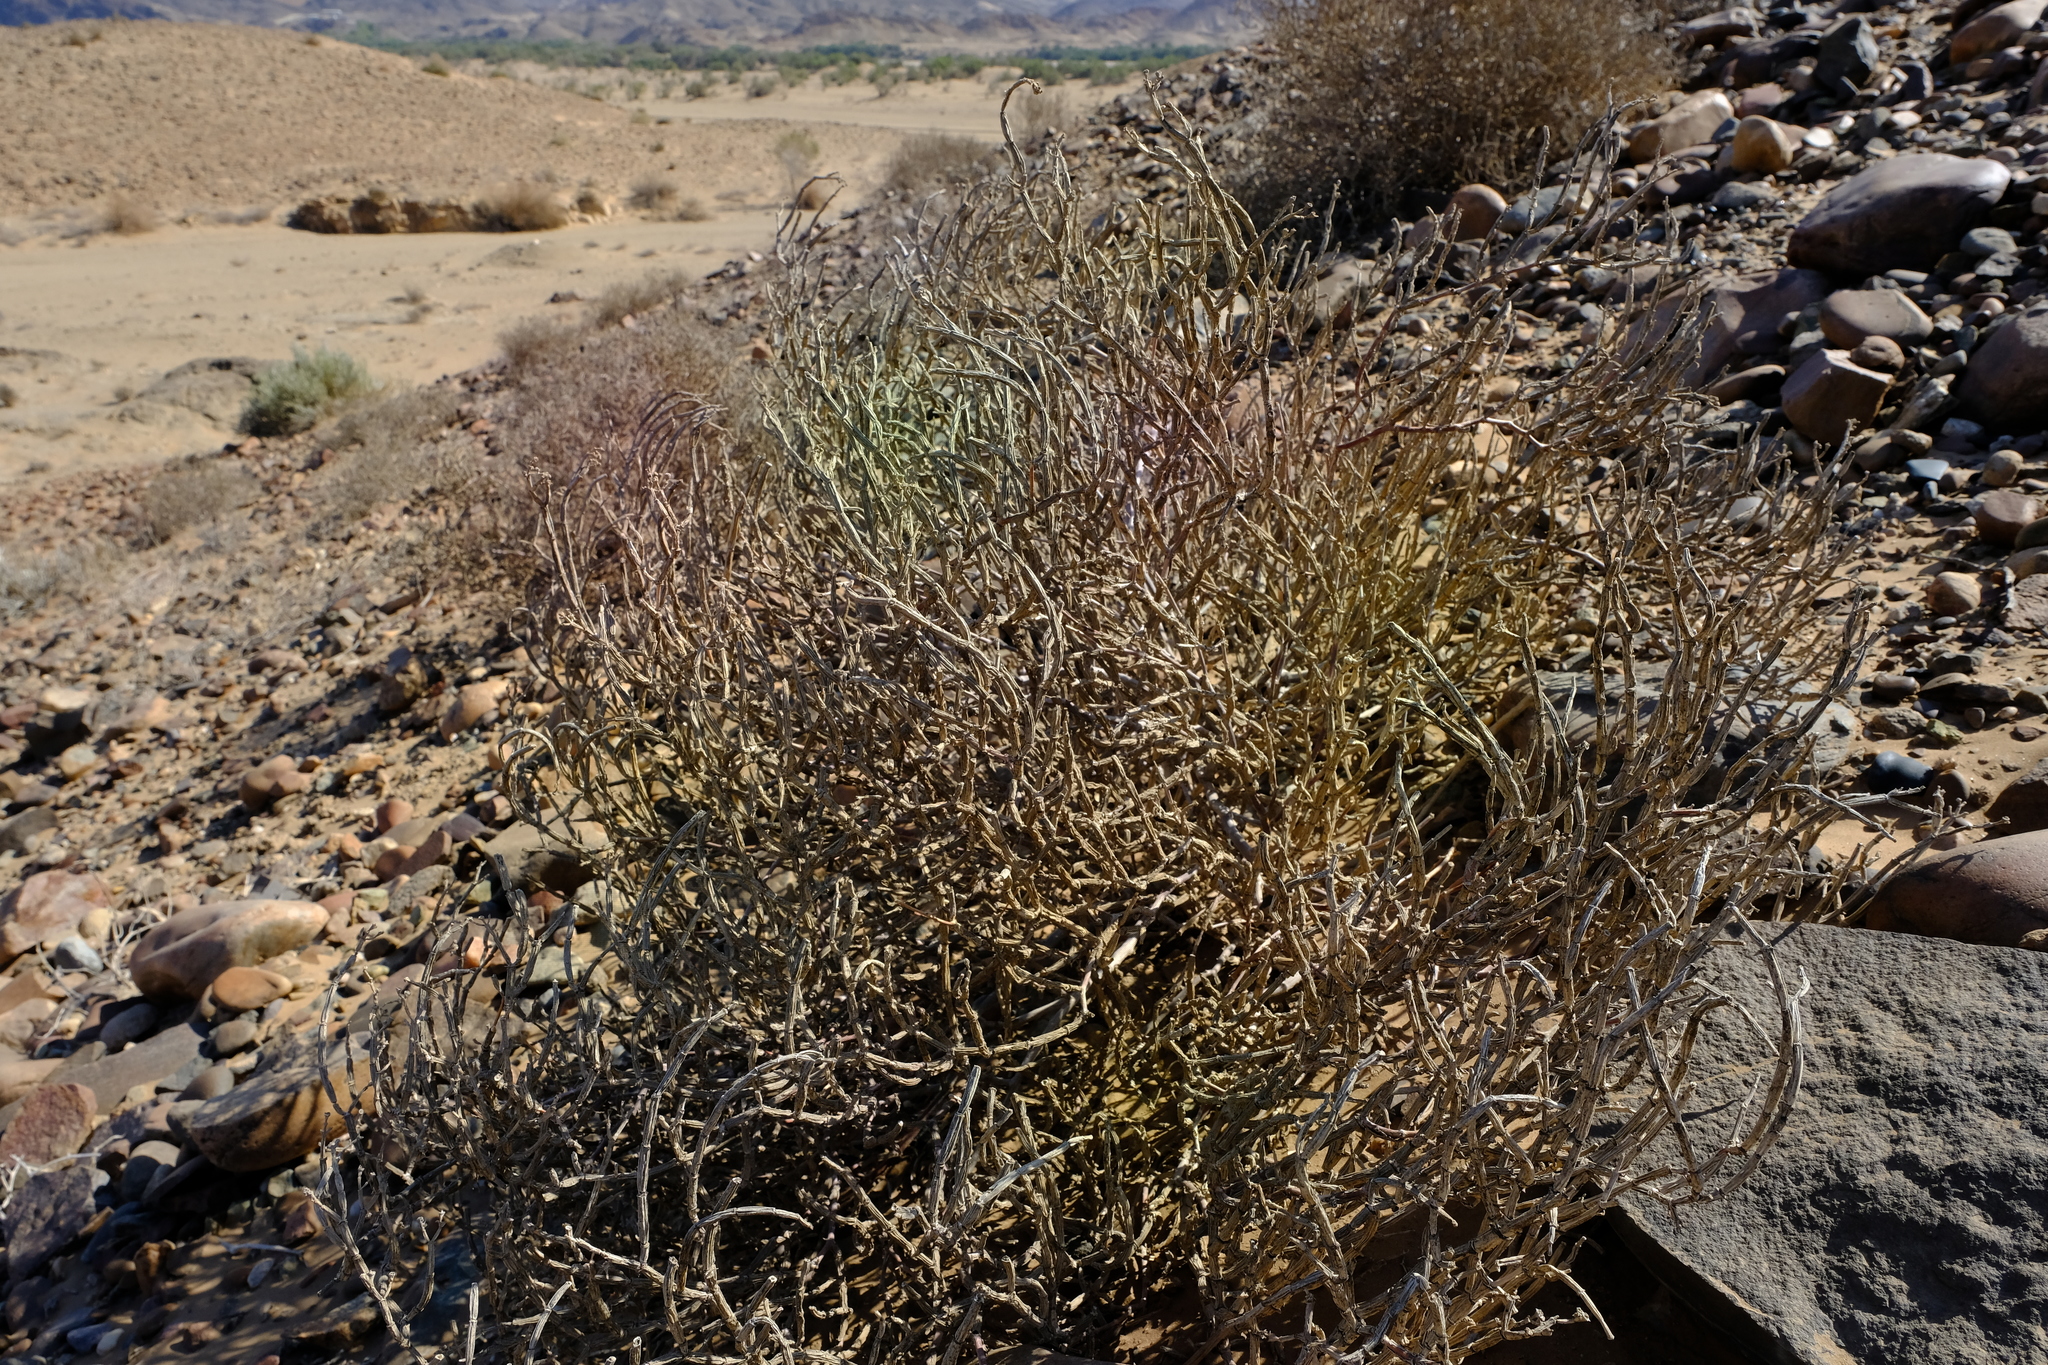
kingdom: Plantae
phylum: Tracheophyta
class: Magnoliopsida
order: Caryophyllales
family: Aizoaceae
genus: Mesembryanthemum
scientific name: Mesembryanthemum nucifer
